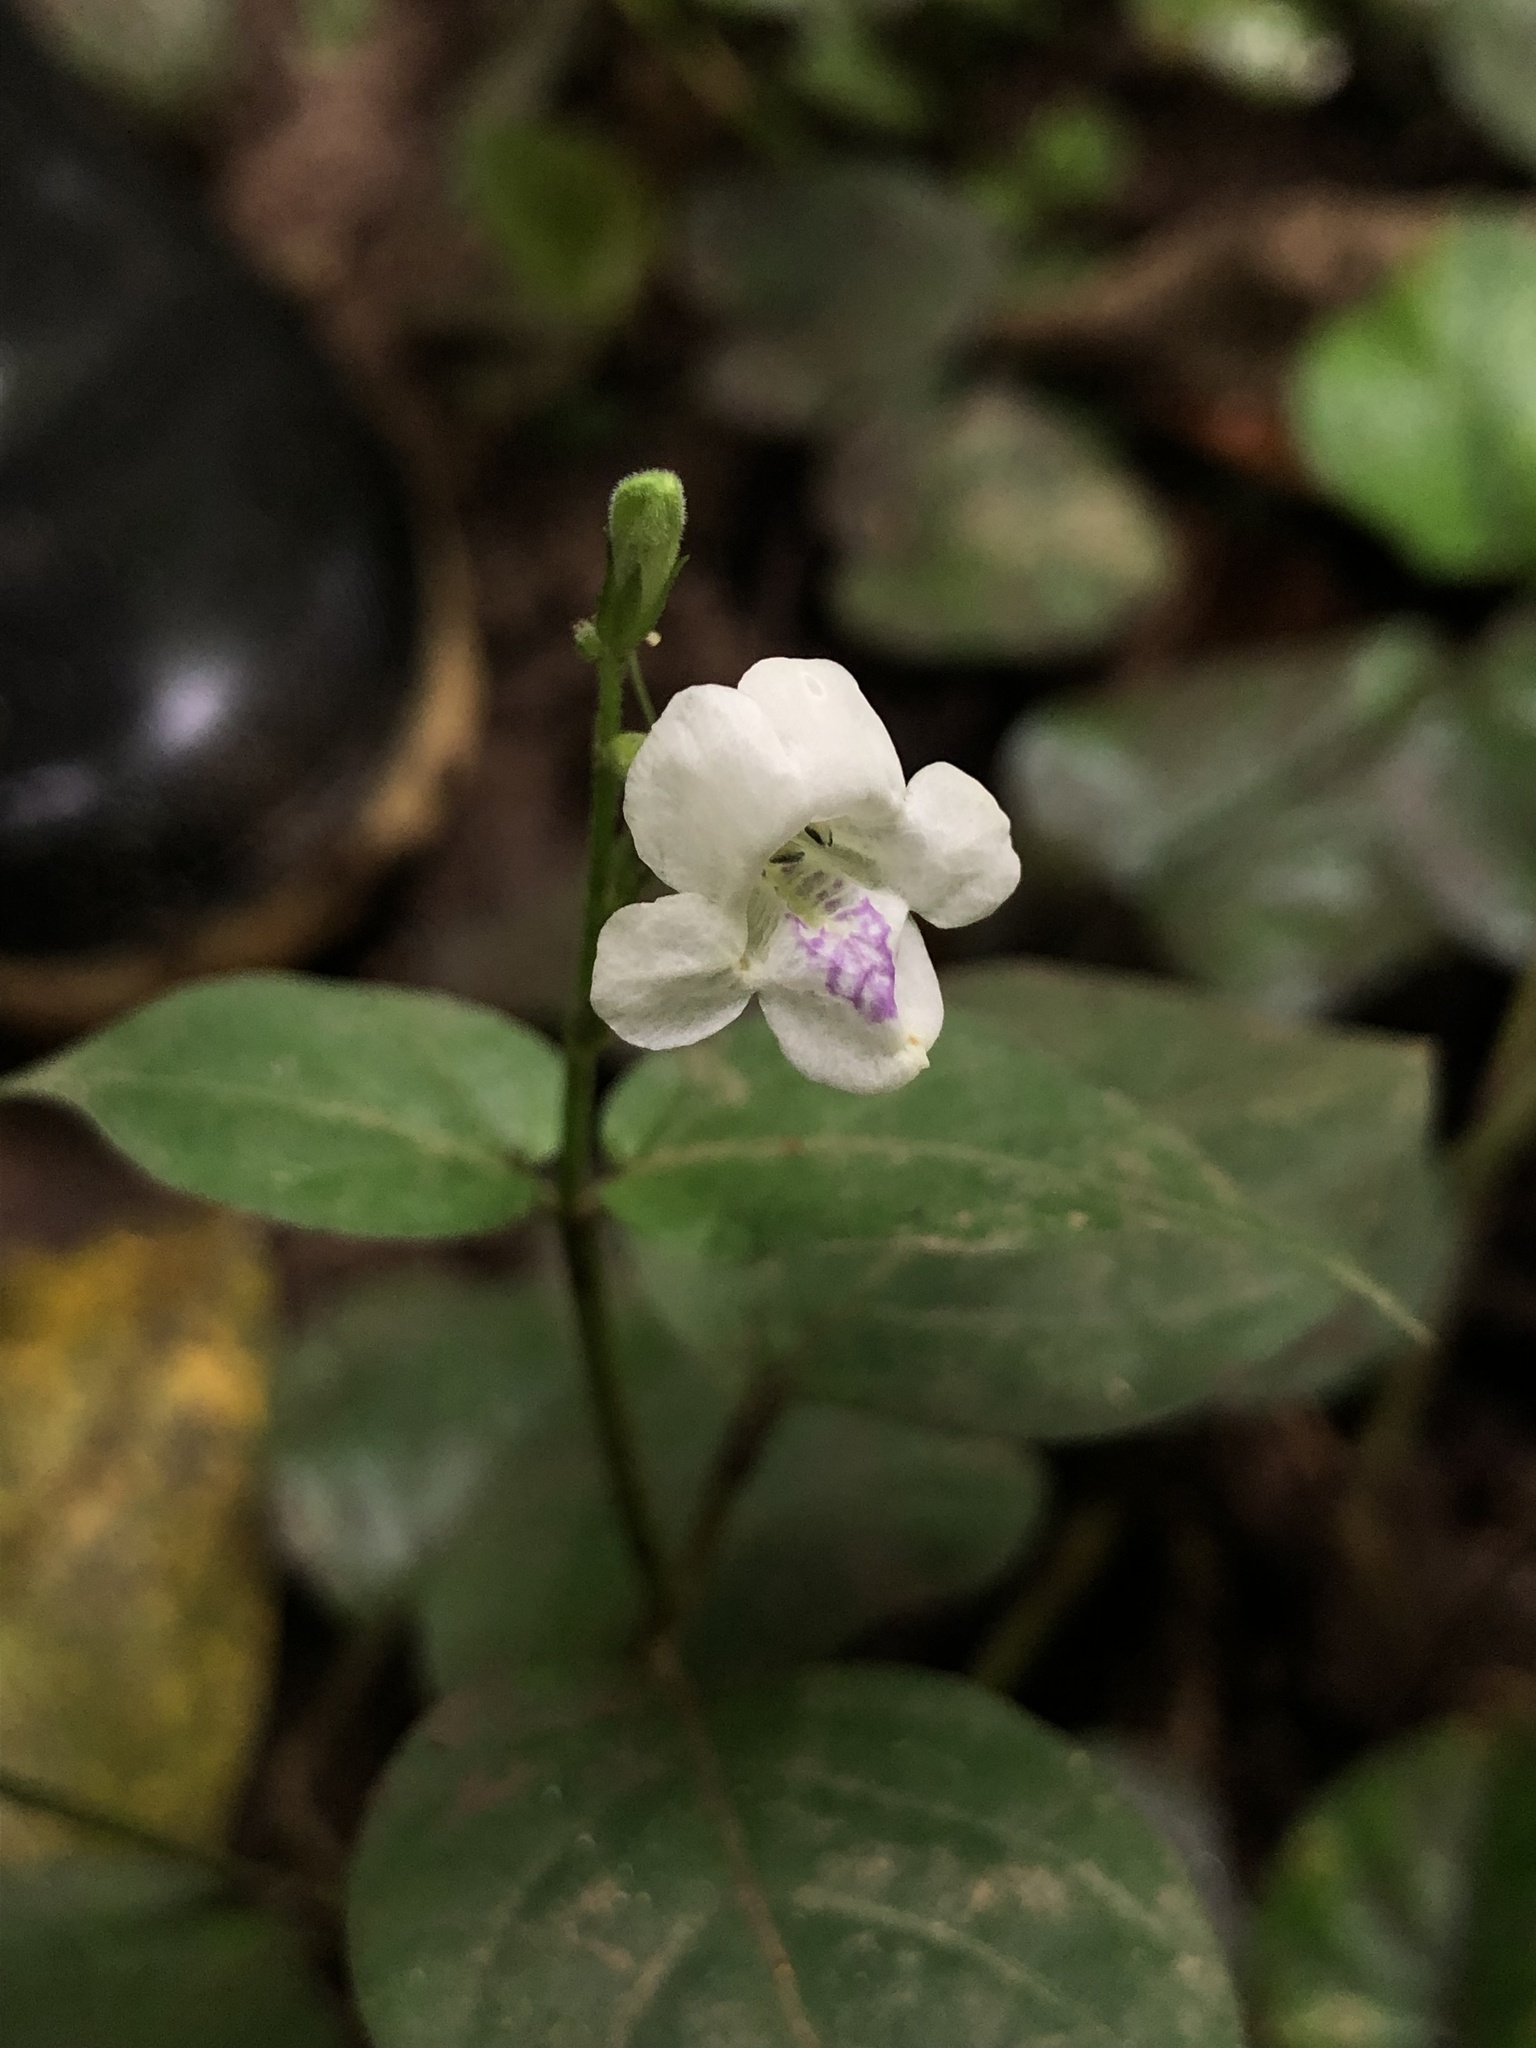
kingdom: Plantae
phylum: Tracheophyta
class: Magnoliopsida
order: Lamiales
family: Acanthaceae
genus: Asystasia
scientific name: Asystasia intrusa
